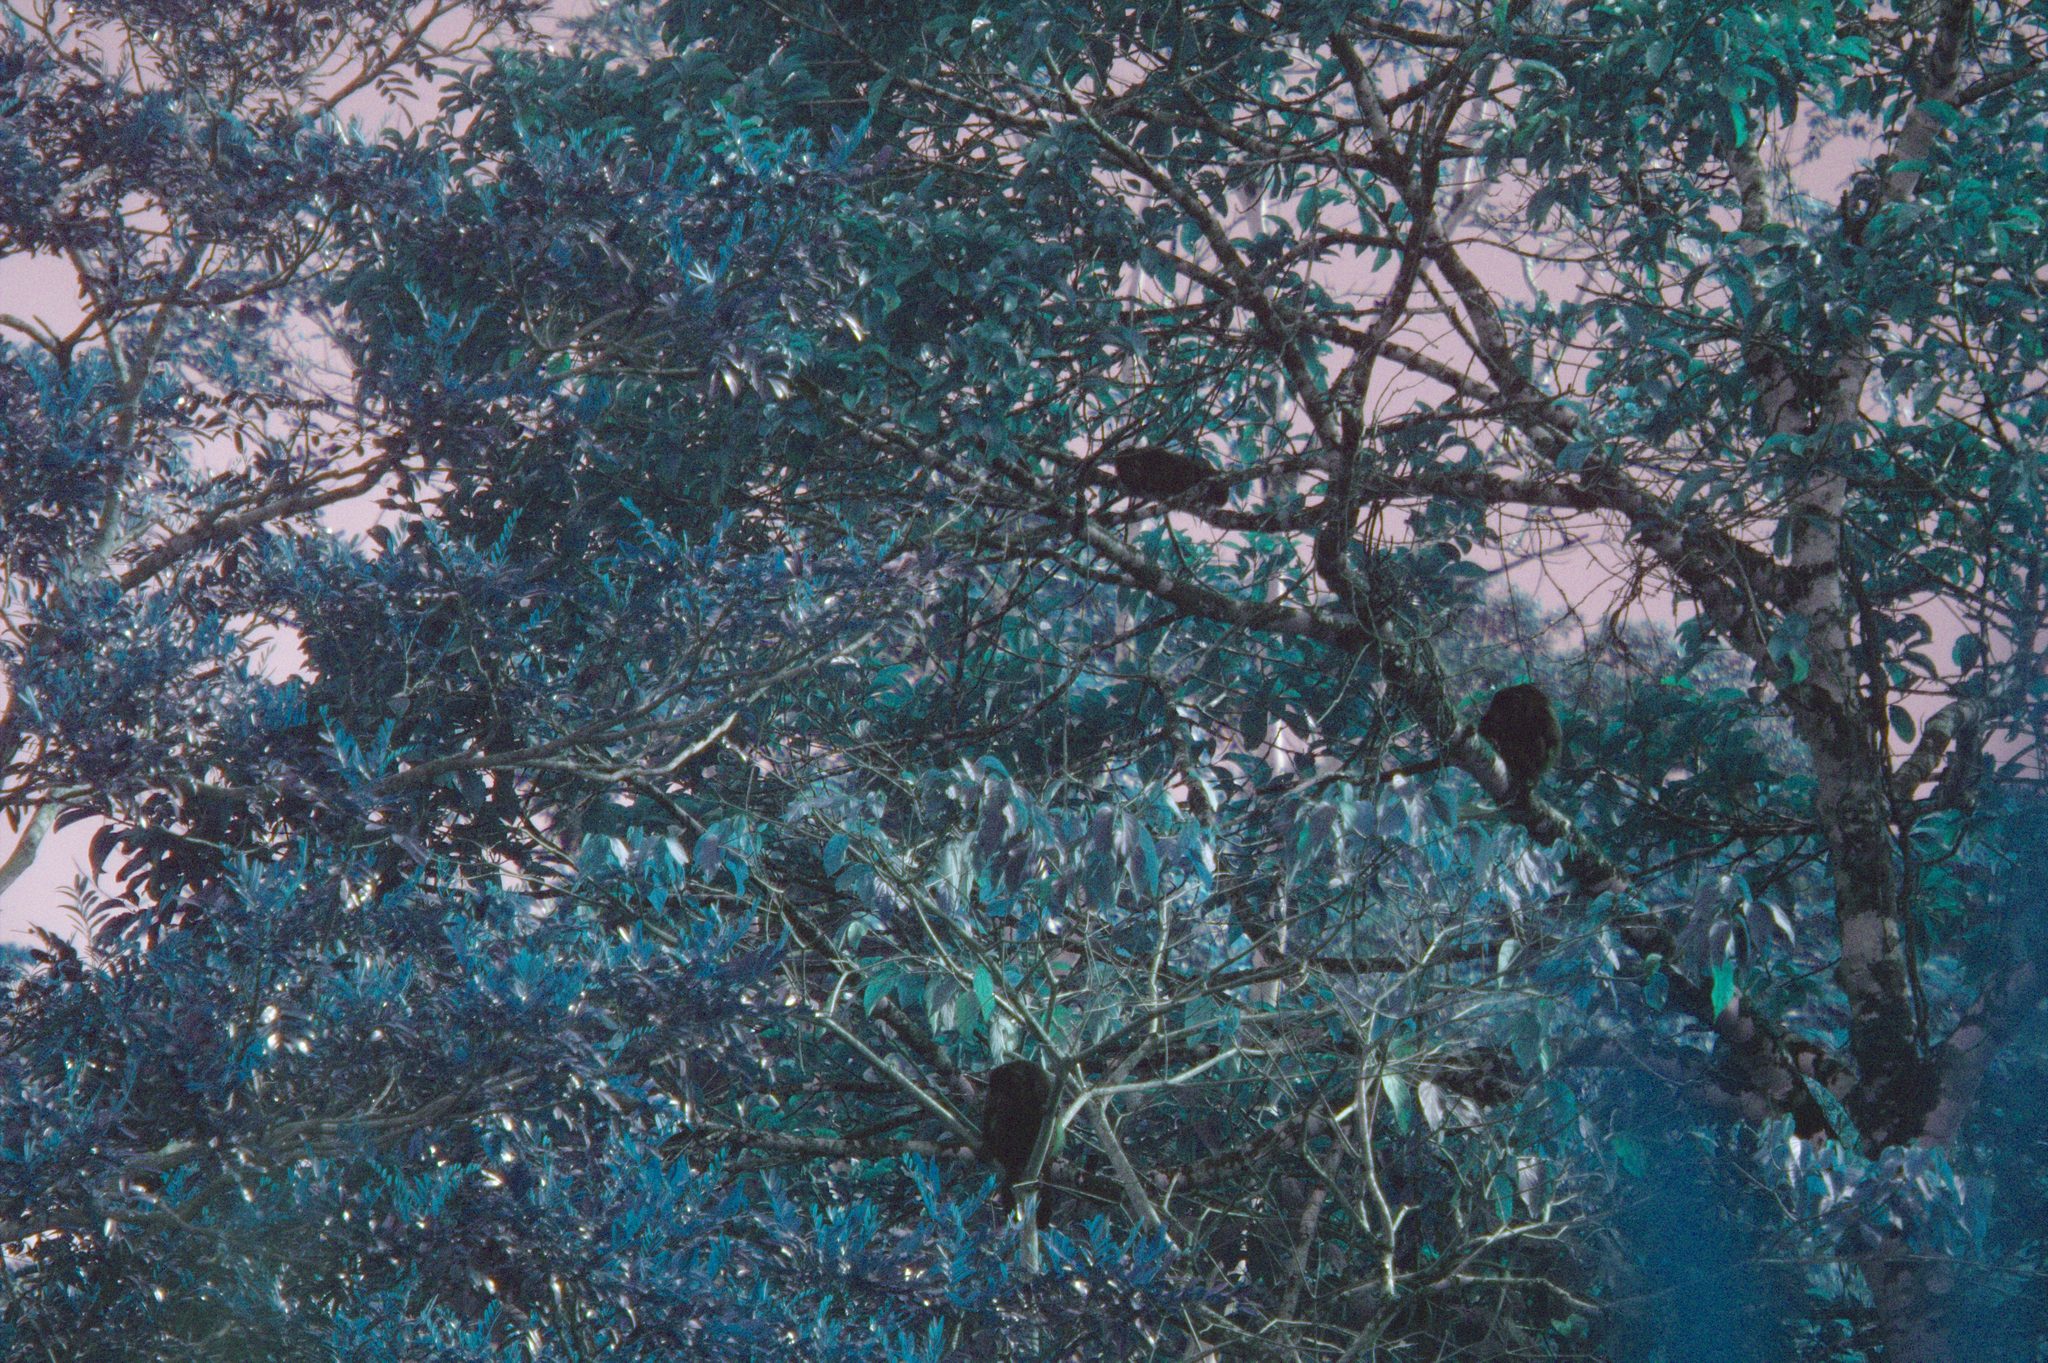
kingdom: Animalia
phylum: Chordata
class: Mammalia
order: Primates
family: Atelidae
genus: Alouatta
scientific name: Alouatta palliata
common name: Mantled howler
